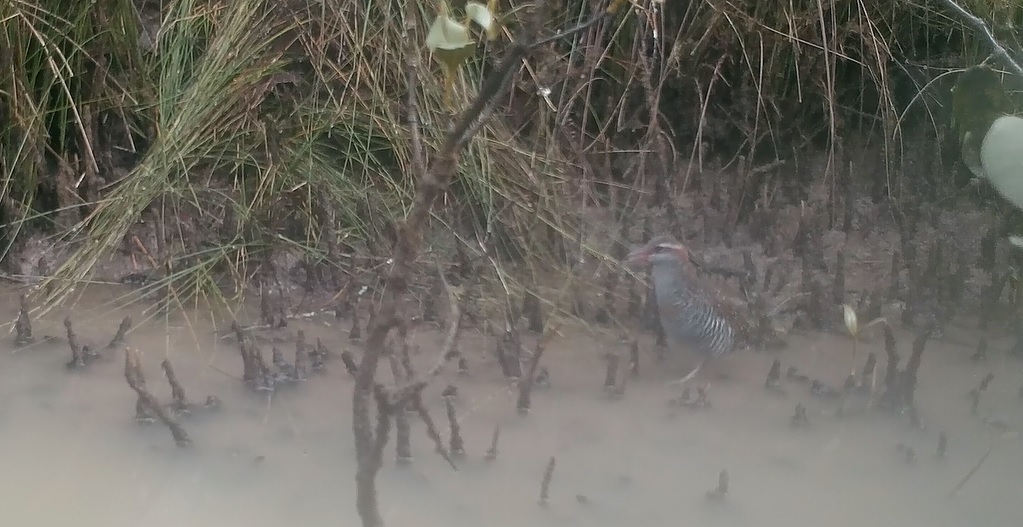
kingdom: Animalia
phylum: Chordata
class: Aves
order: Gruiformes
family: Rallidae
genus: Gallirallus
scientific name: Gallirallus philippensis
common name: Buff-banded rail
